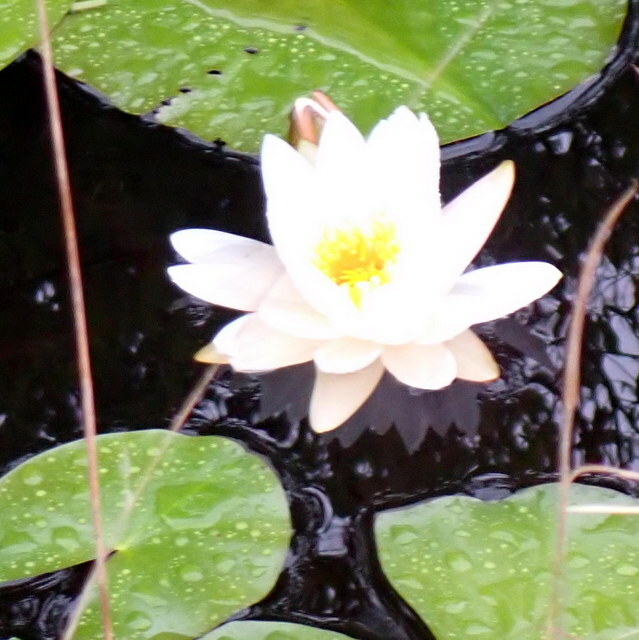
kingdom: Plantae
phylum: Tracheophyta
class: Magnoliopsida
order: Nymphaeales
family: Nymphaeaceae
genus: Nymphaea
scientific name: Nymphaea odorata
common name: Fragrant water-lily
